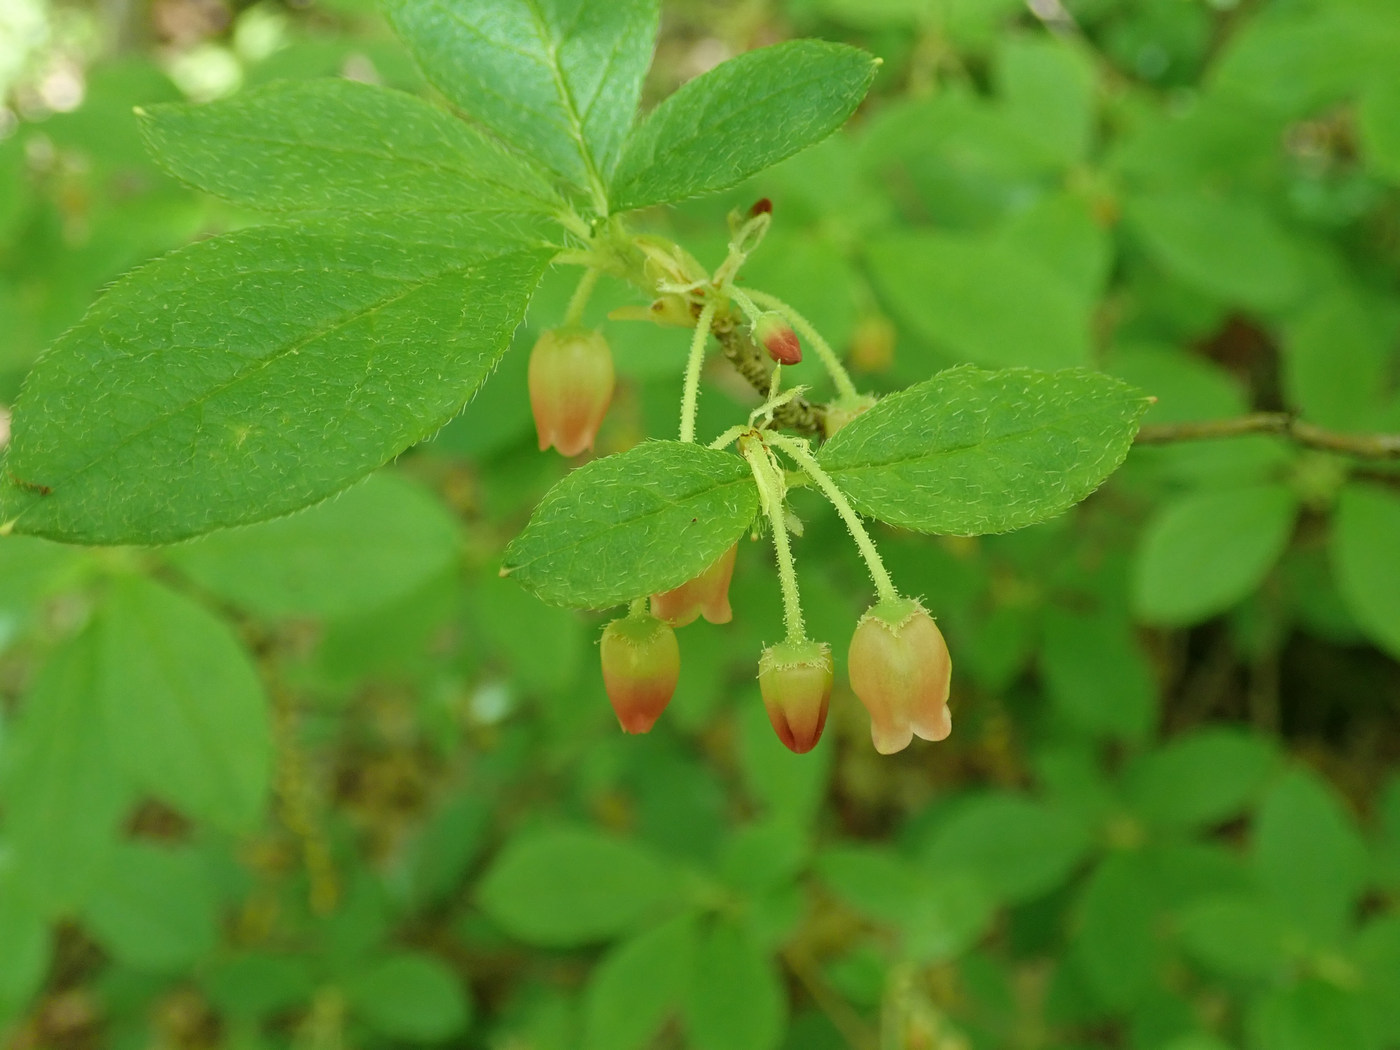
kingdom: Plantae
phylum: Tracheophyta
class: Magnoliopsida
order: Ericales
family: Ericaceae
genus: Rhododendron
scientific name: Rhododendron pilosum
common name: Hairy minniebush
